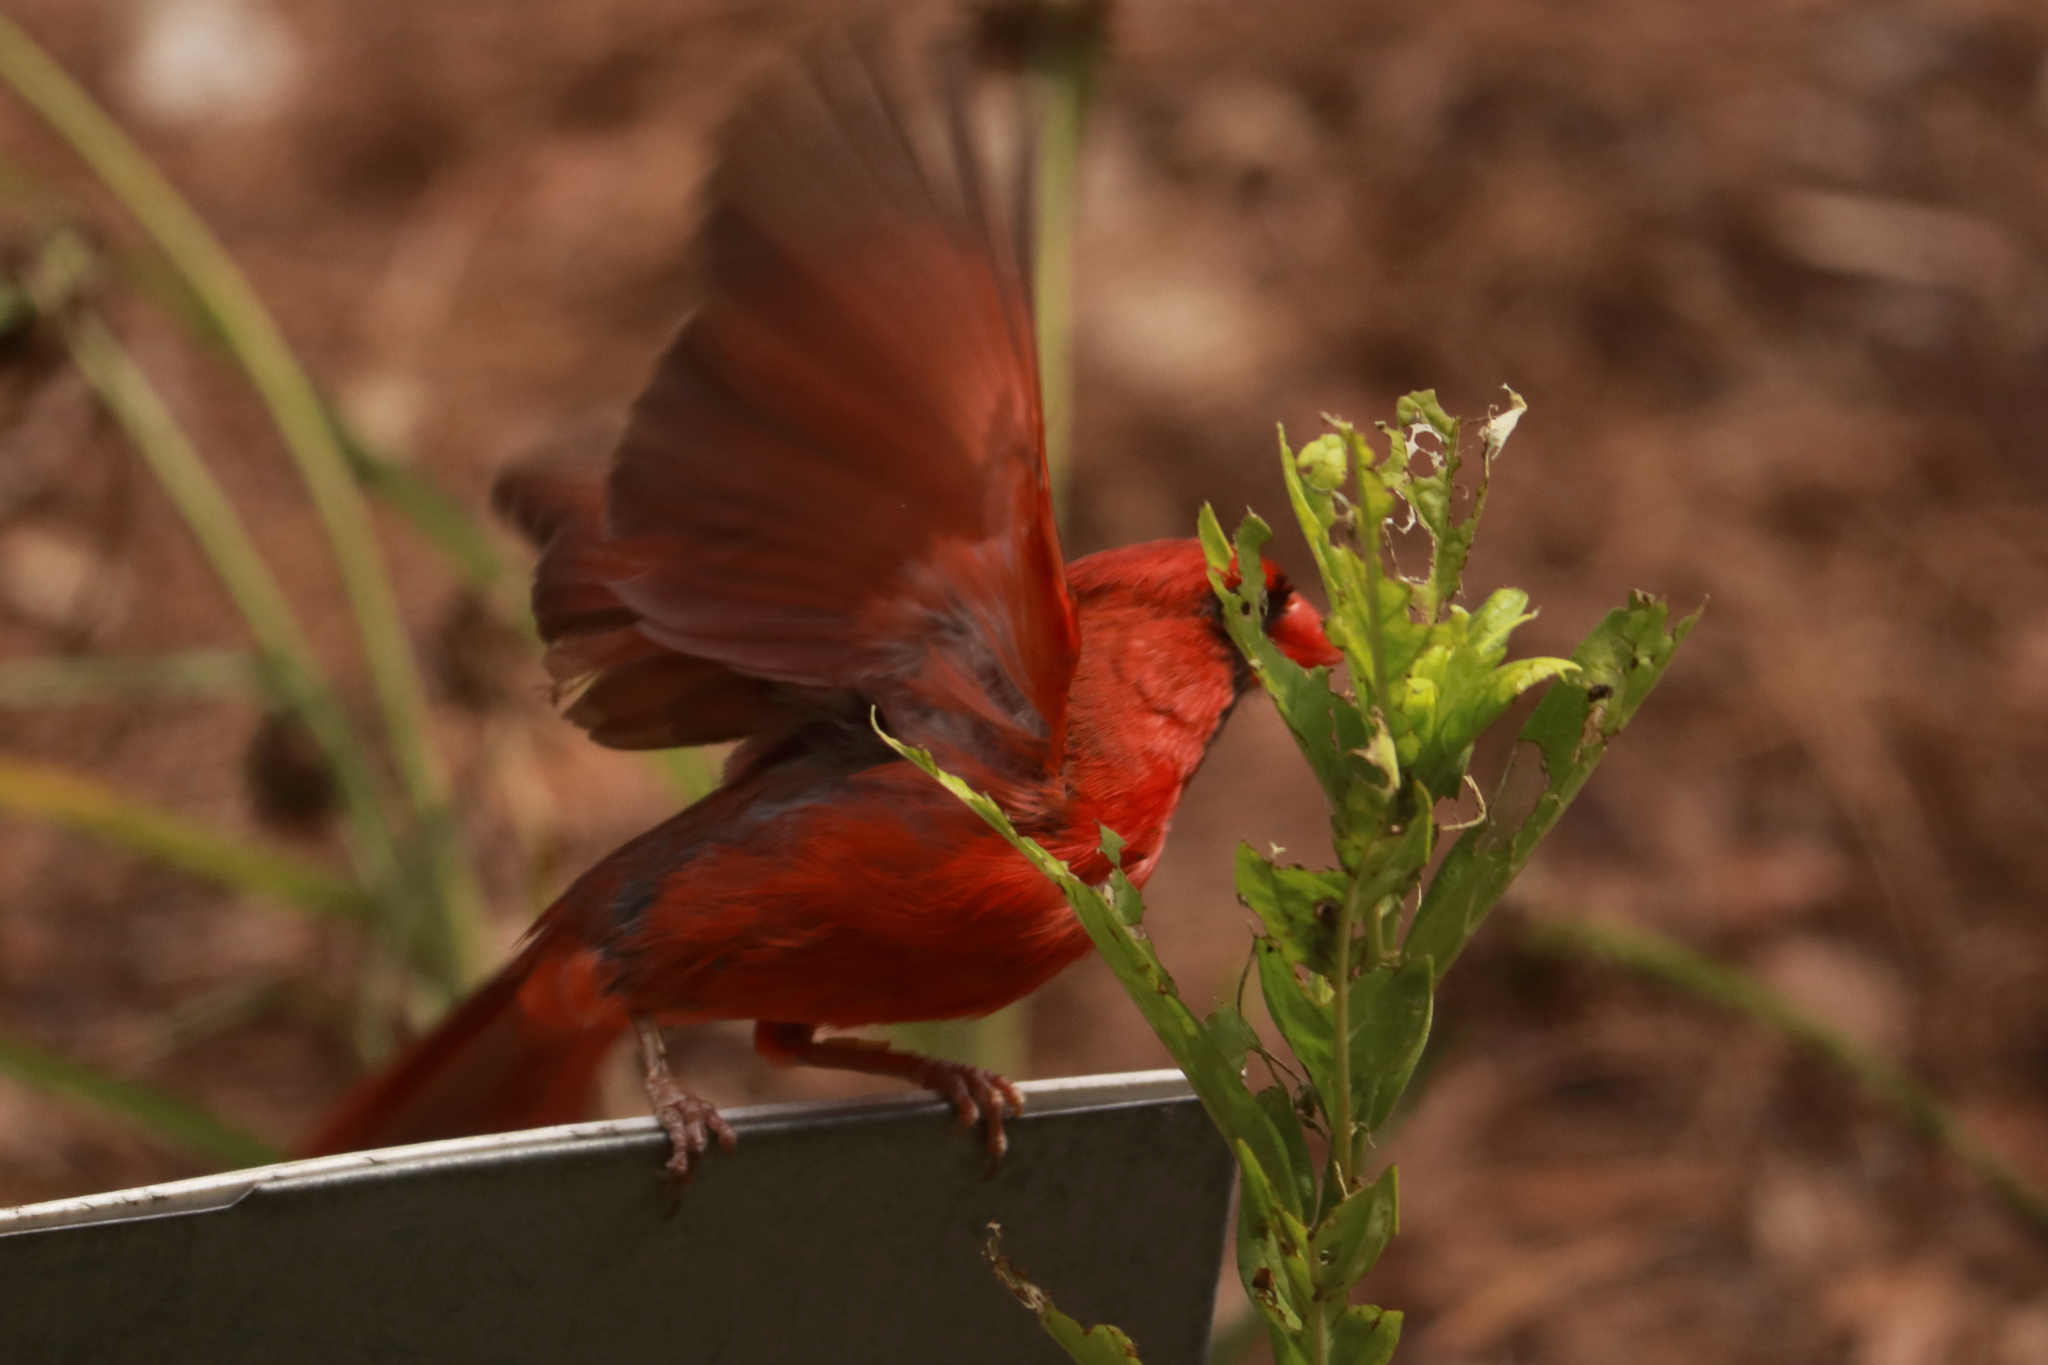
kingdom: Animalia
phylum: Chordata
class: Aves
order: Passeriformes
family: Cardinalidae
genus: Cardinalis
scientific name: Cardinalis cardinalis
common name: Northern cardinal
